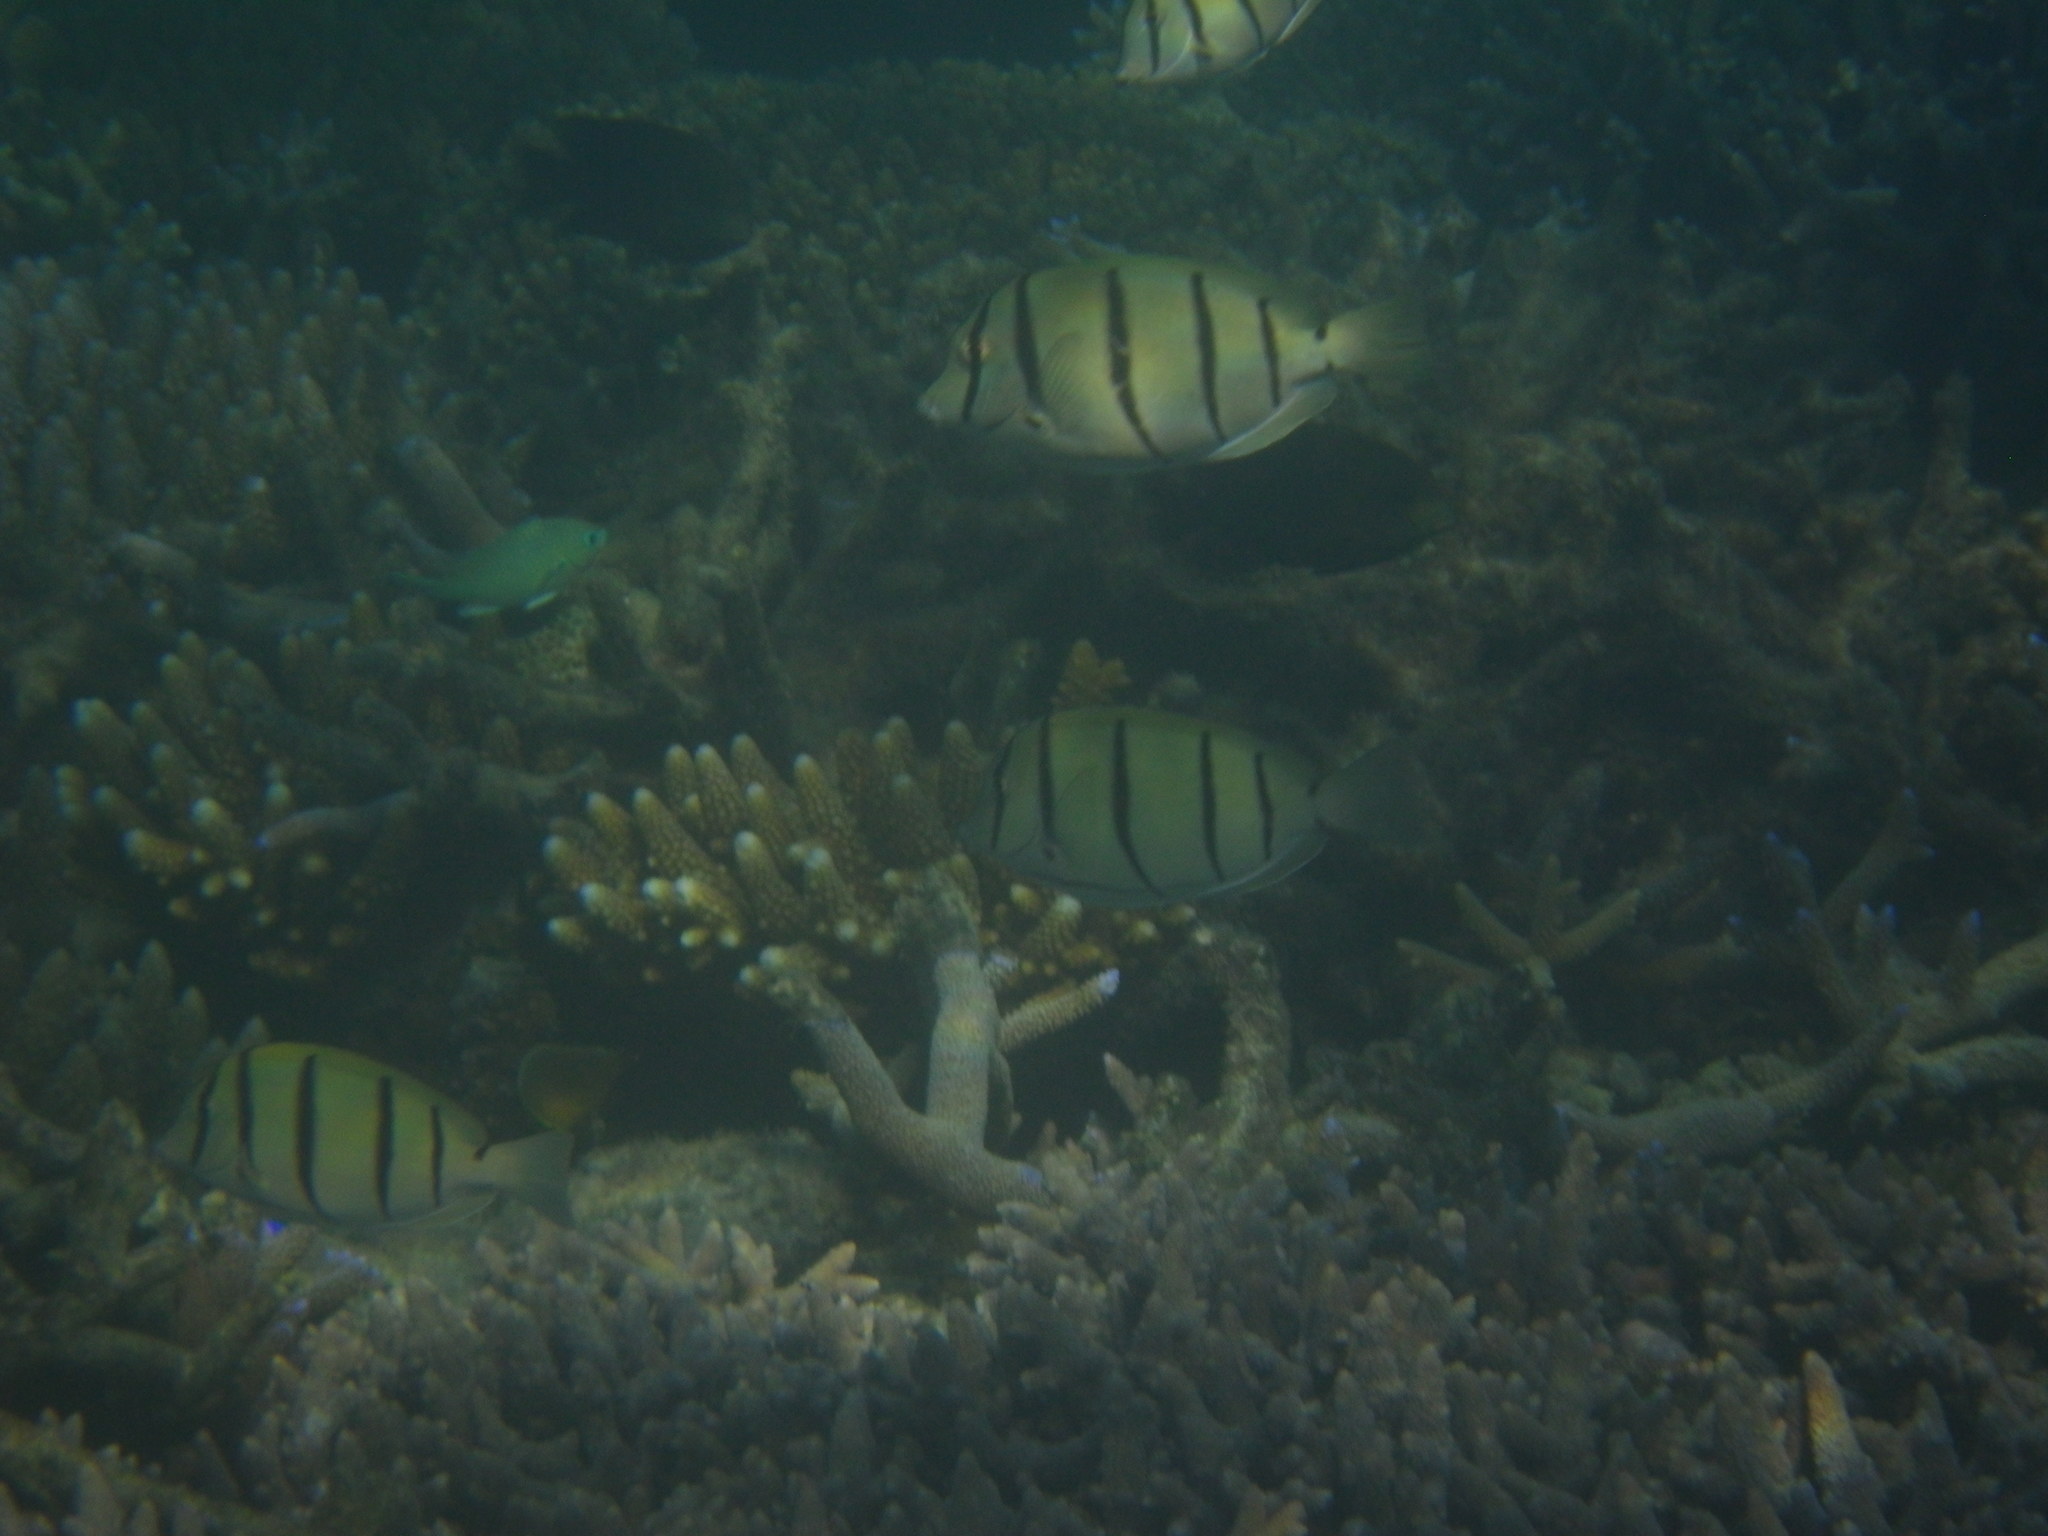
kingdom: Animalia
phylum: Chordata
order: Perciformes
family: Acanthuridae
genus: Acanthurus
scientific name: Acanthurus triostegus
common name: Convict surgeonfish
